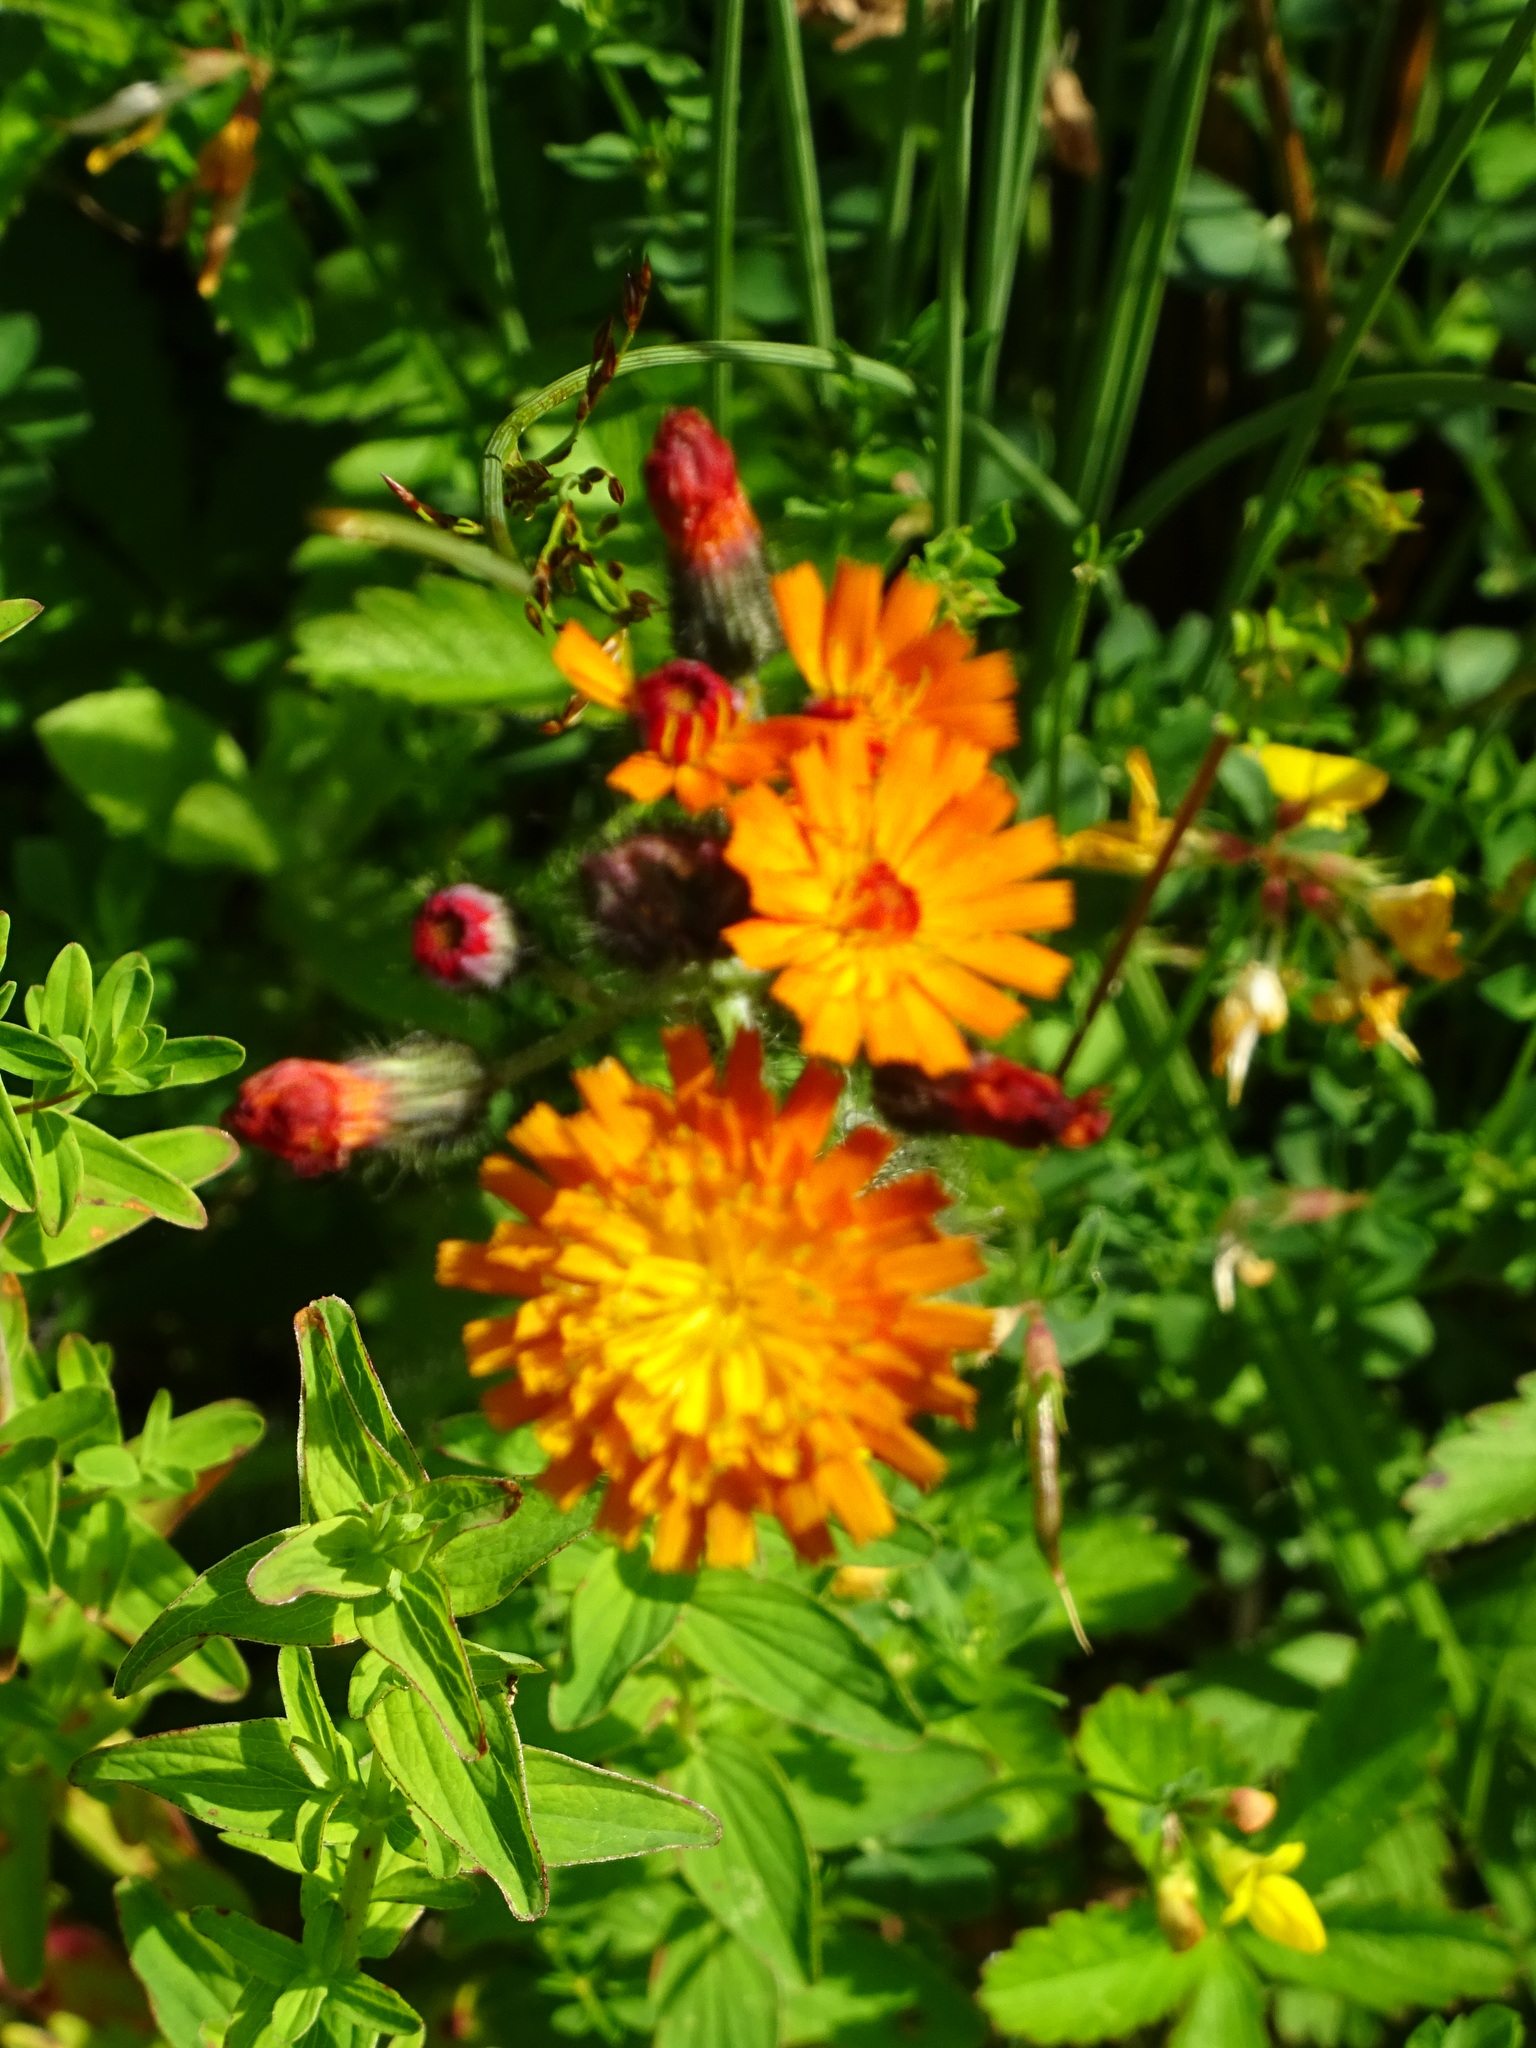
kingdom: Plantae
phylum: Tracheophyta
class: Magnoliopsida
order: Asterales
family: Asteraceae
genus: Pilosella
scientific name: Pilosella aurantiaca
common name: Fox-and-cubs
